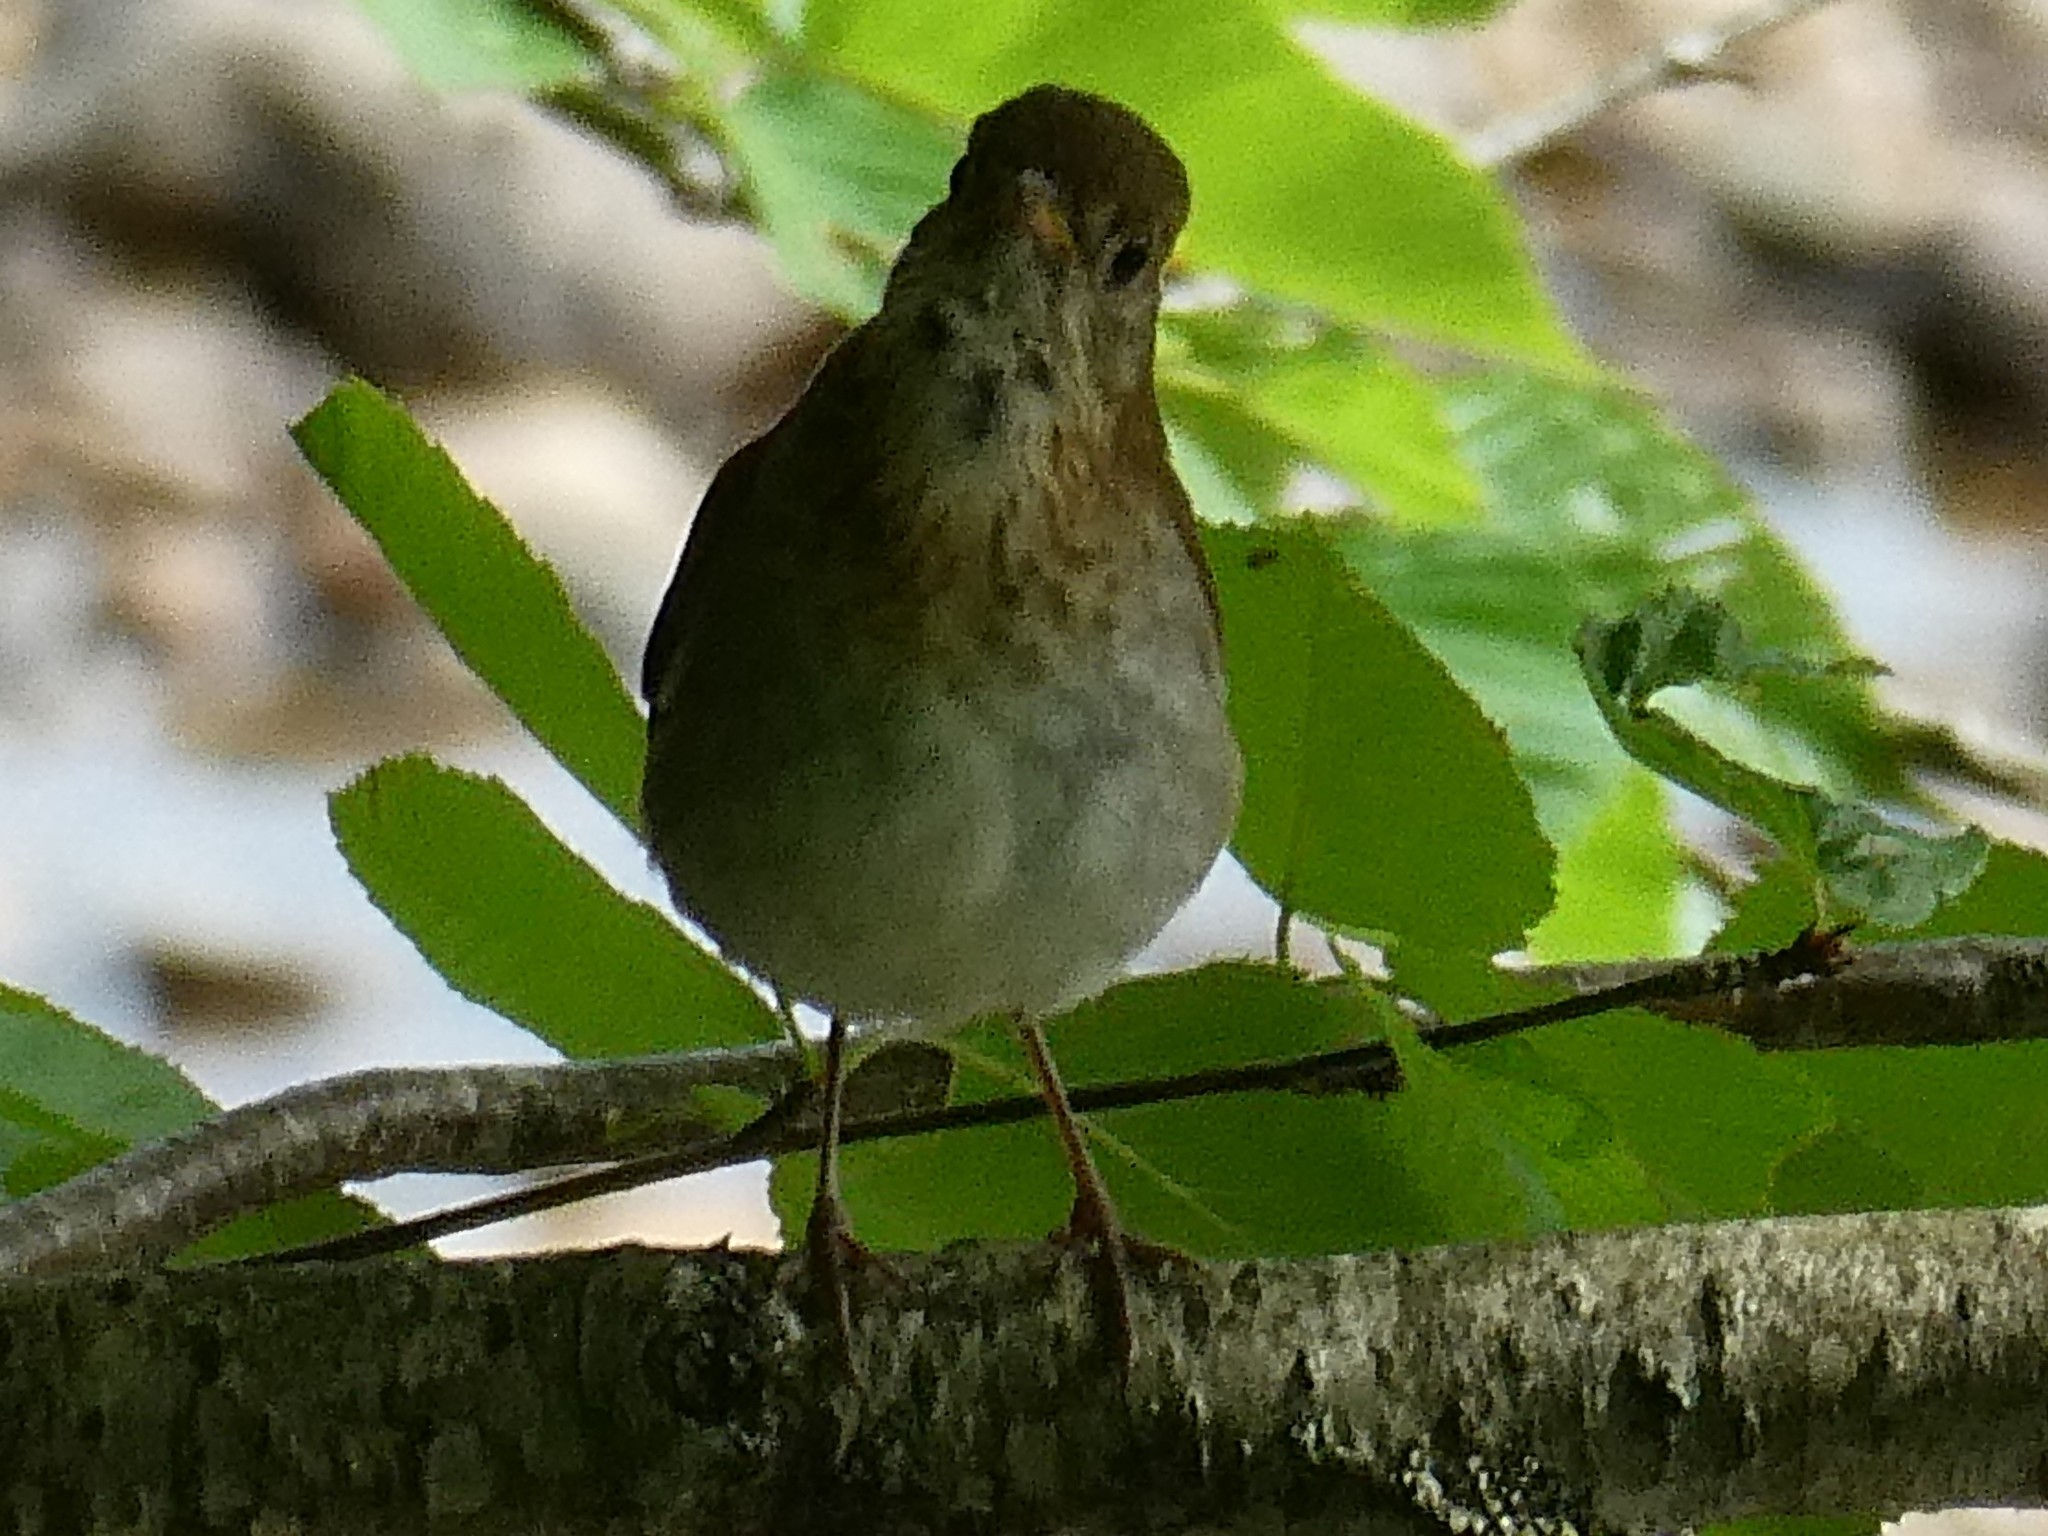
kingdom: Animalia
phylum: Chordata
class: Aves
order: Passeriformes
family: Turdidae
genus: Catharus
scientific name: Catharus fuscescens
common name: Veery
